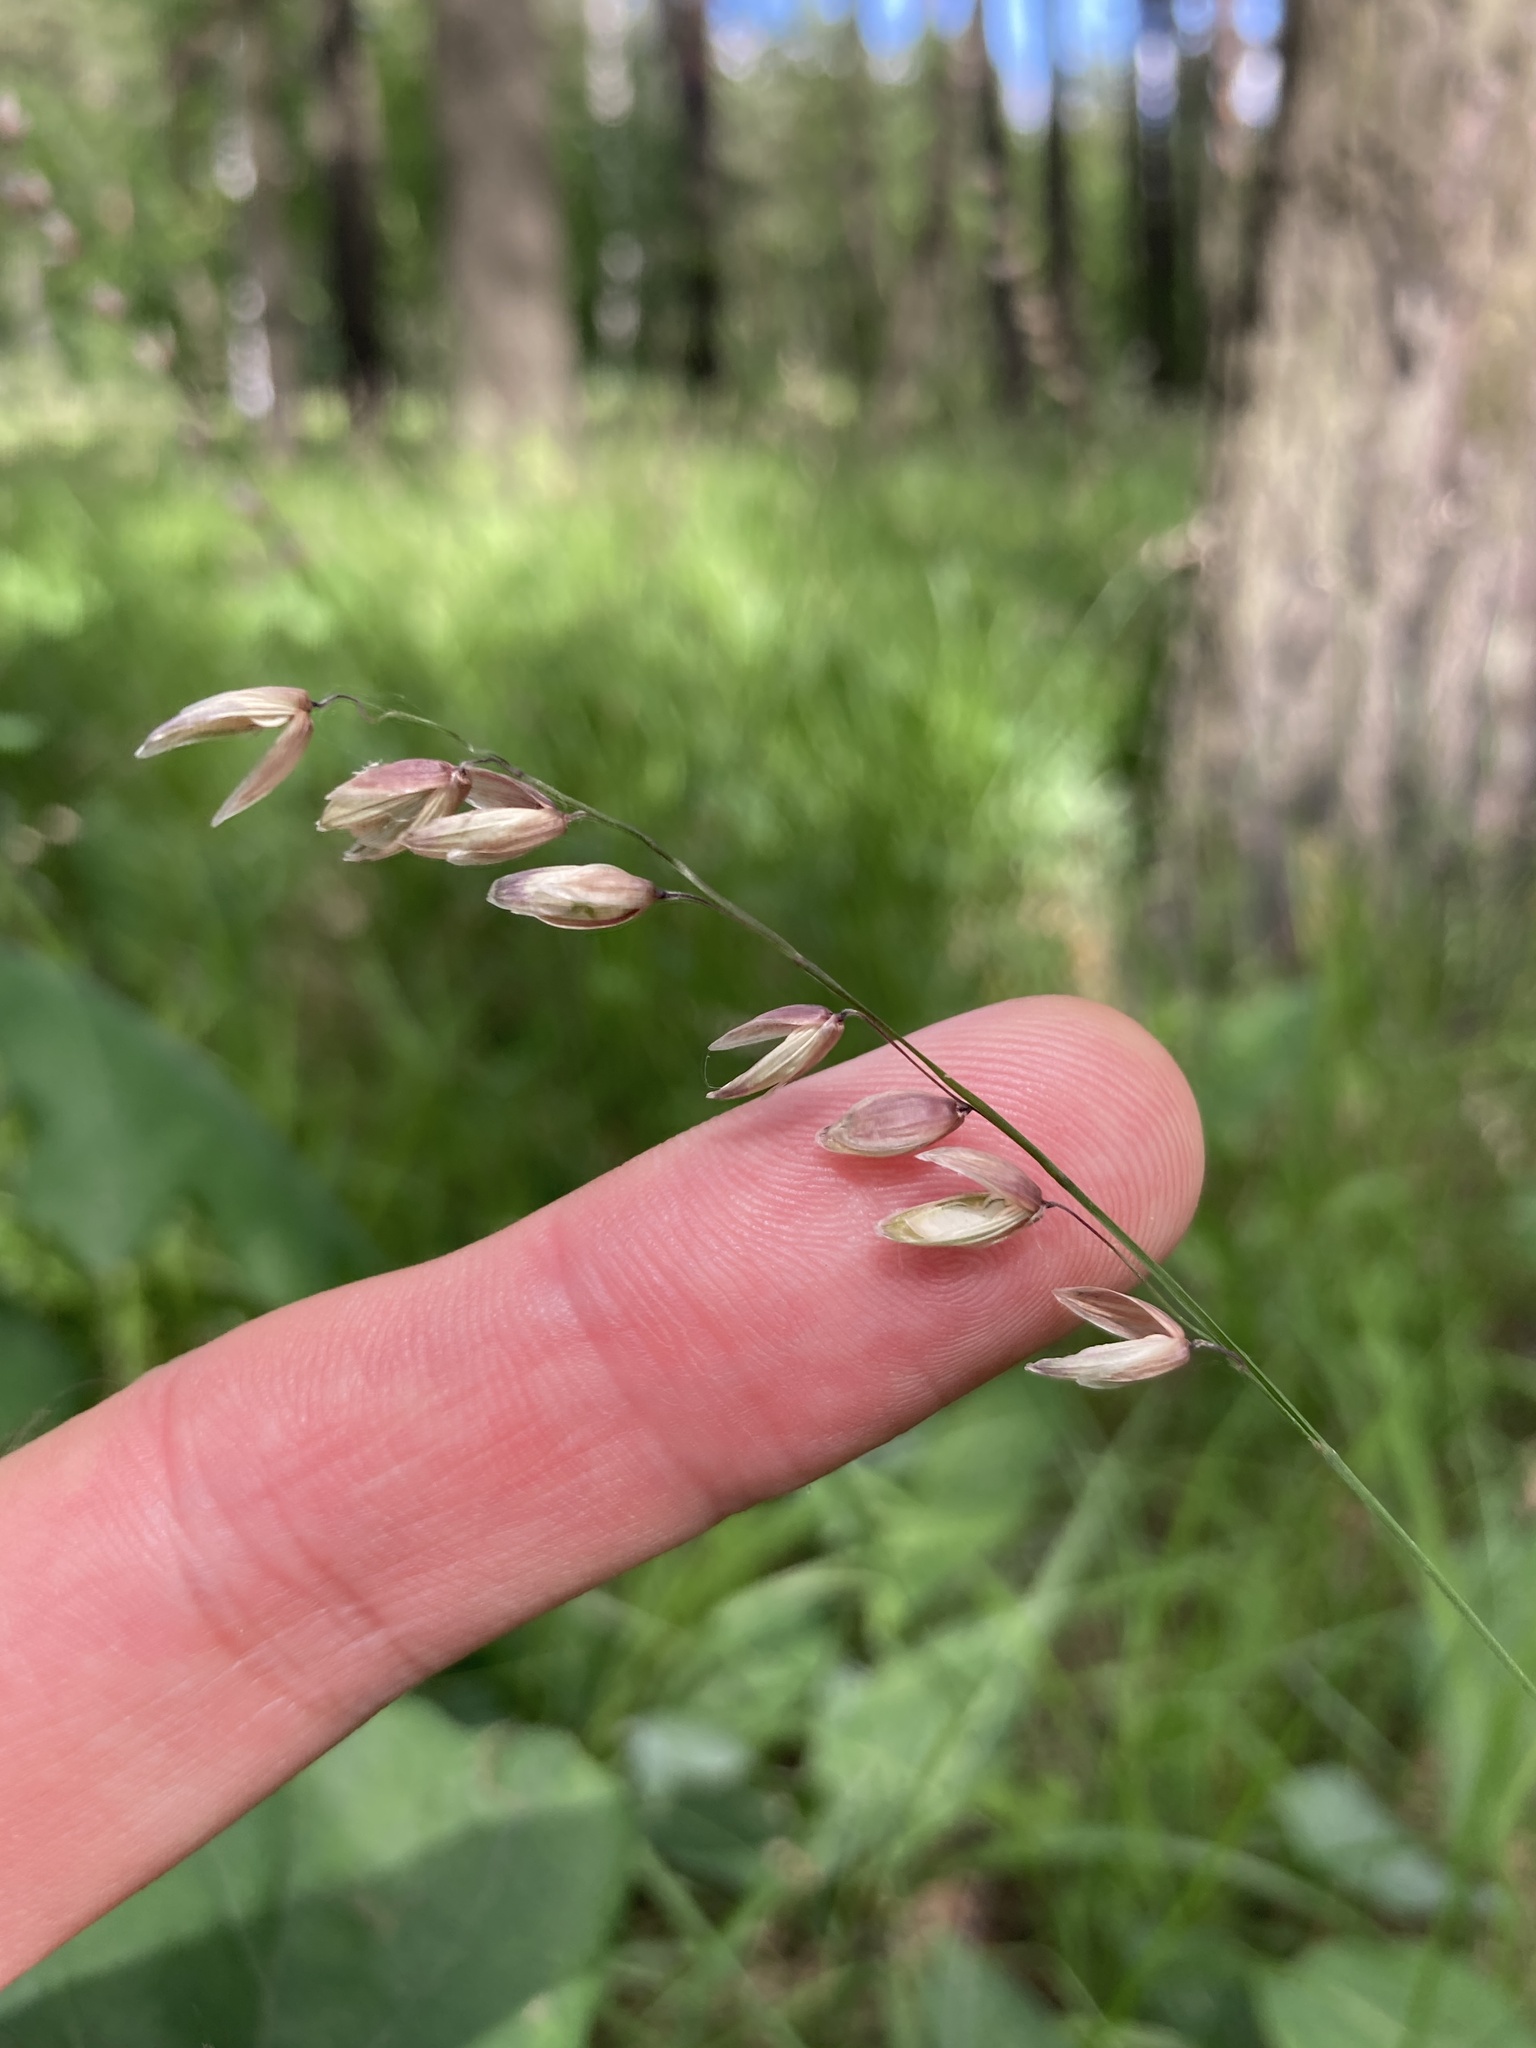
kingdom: Plantae
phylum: Tracheophyta
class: Liliopsida
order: Poales
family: Poaceae
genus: Melica
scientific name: Melica nutans
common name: Mountain melick
